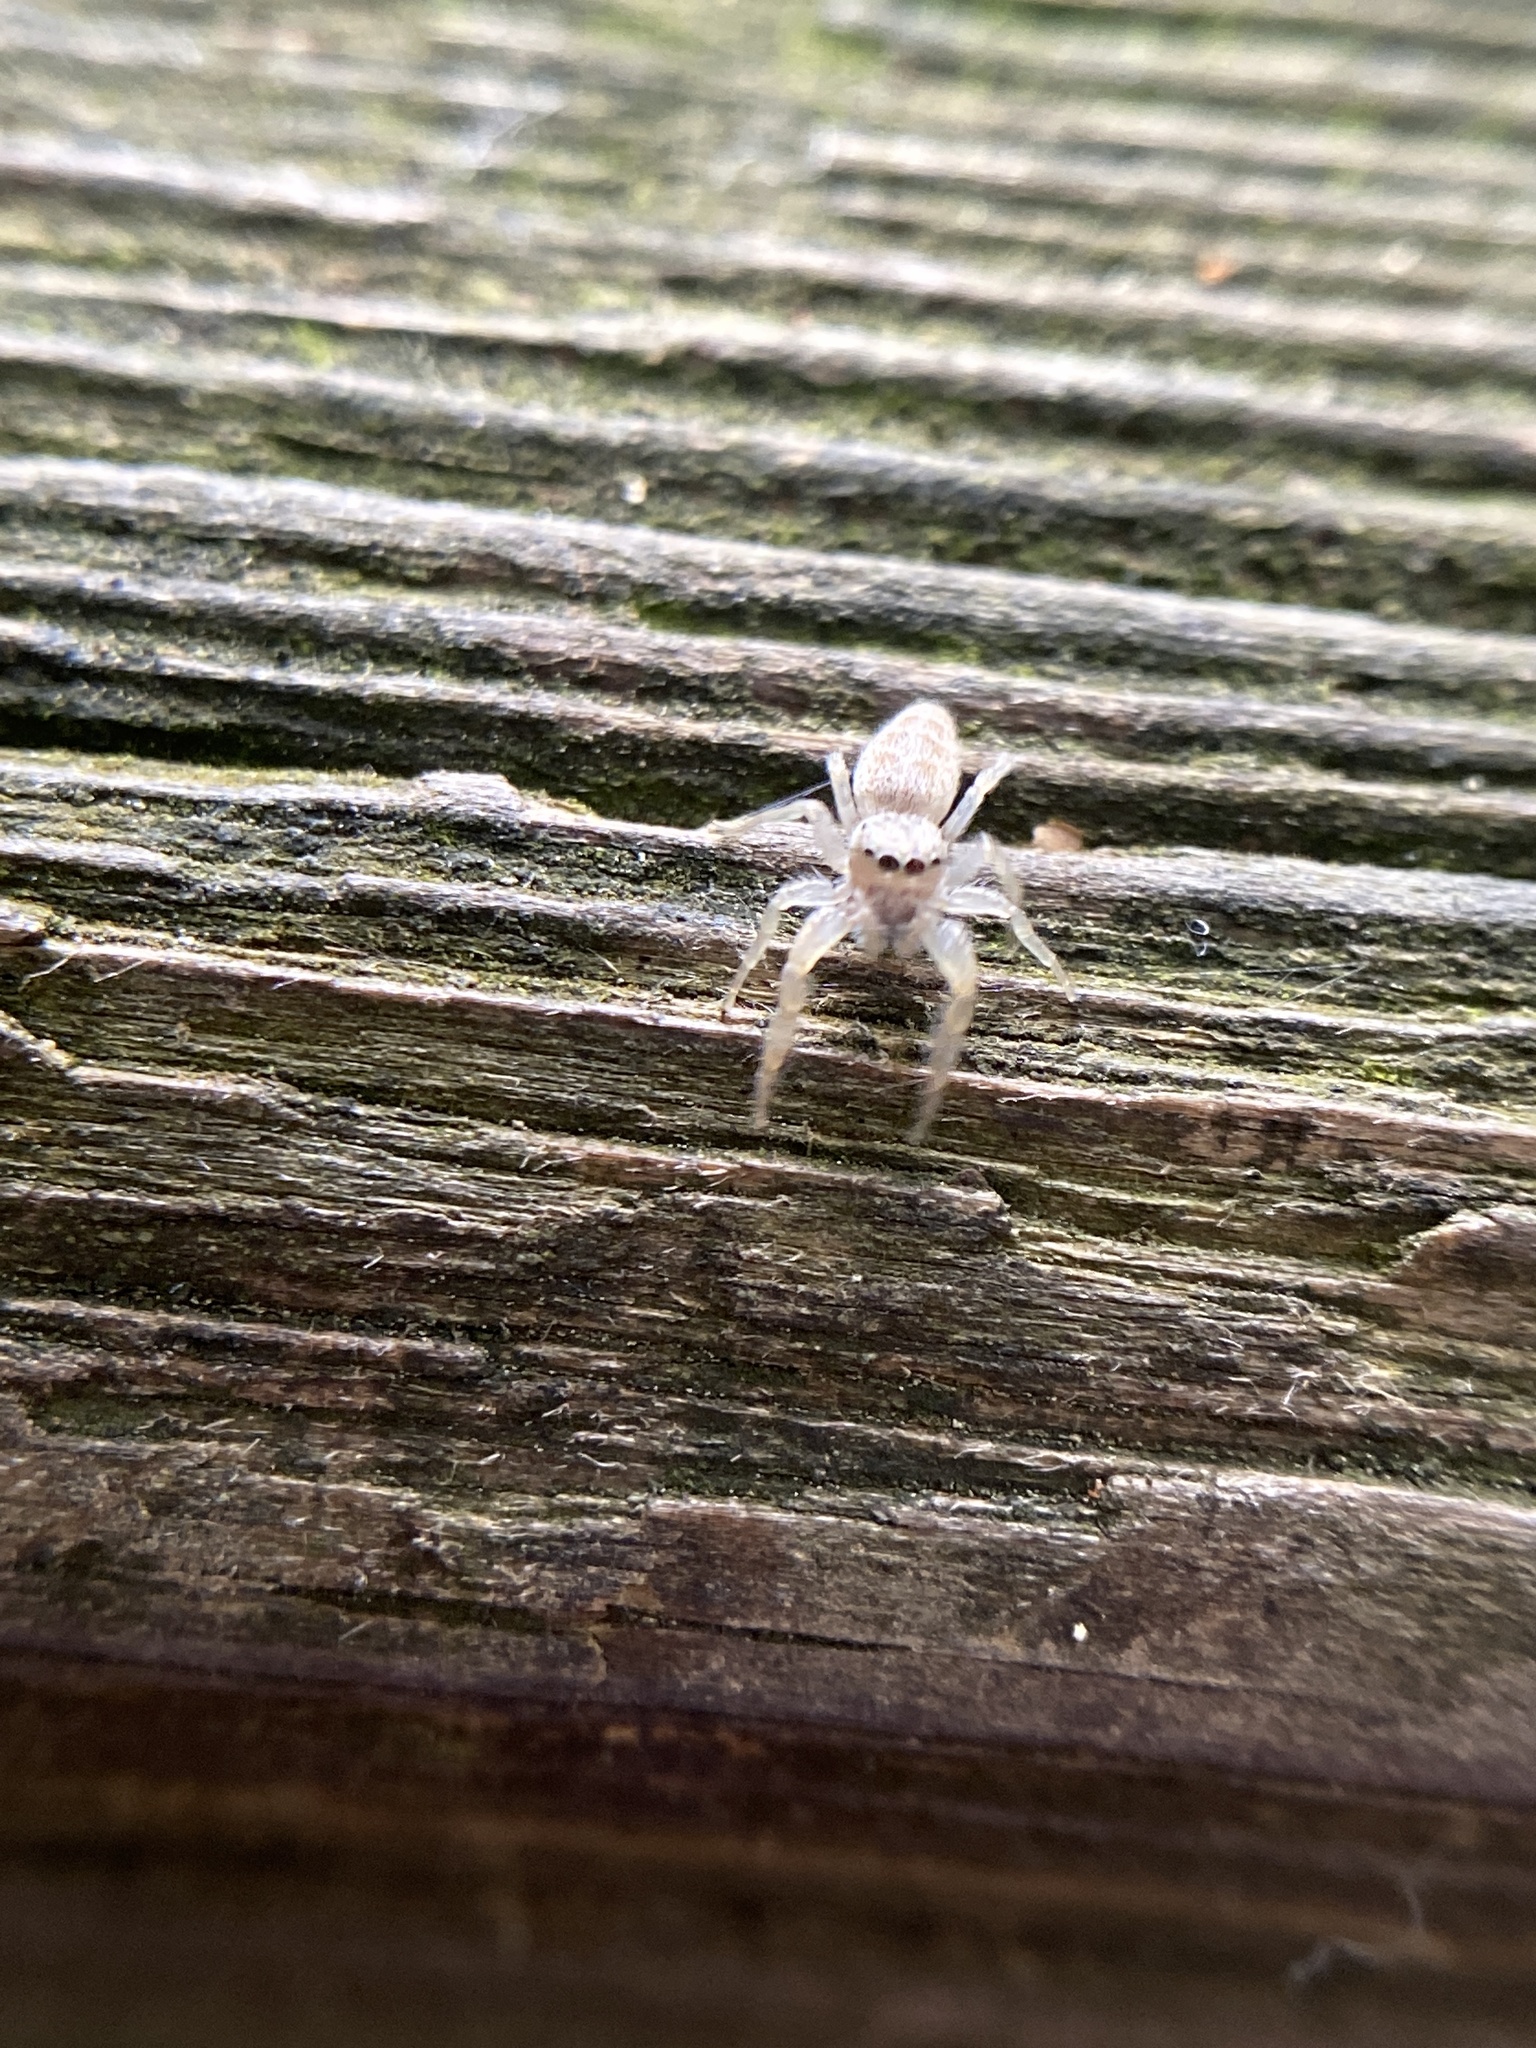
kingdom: Animalia
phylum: Arthropoda
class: Arachnida
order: Araneae
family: Salticidae
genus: Hentzia
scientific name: Hentzia mitrata
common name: White-jawed jumping spider
